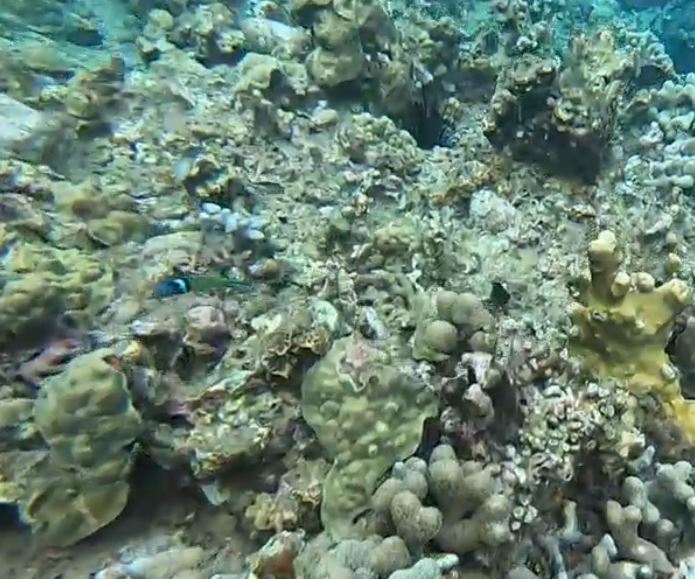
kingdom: Animalia
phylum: Chordata
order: Perciformes
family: Labridae
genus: Thalassoma
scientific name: Thalassoma bifasciatum
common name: Bluehead wrasse
